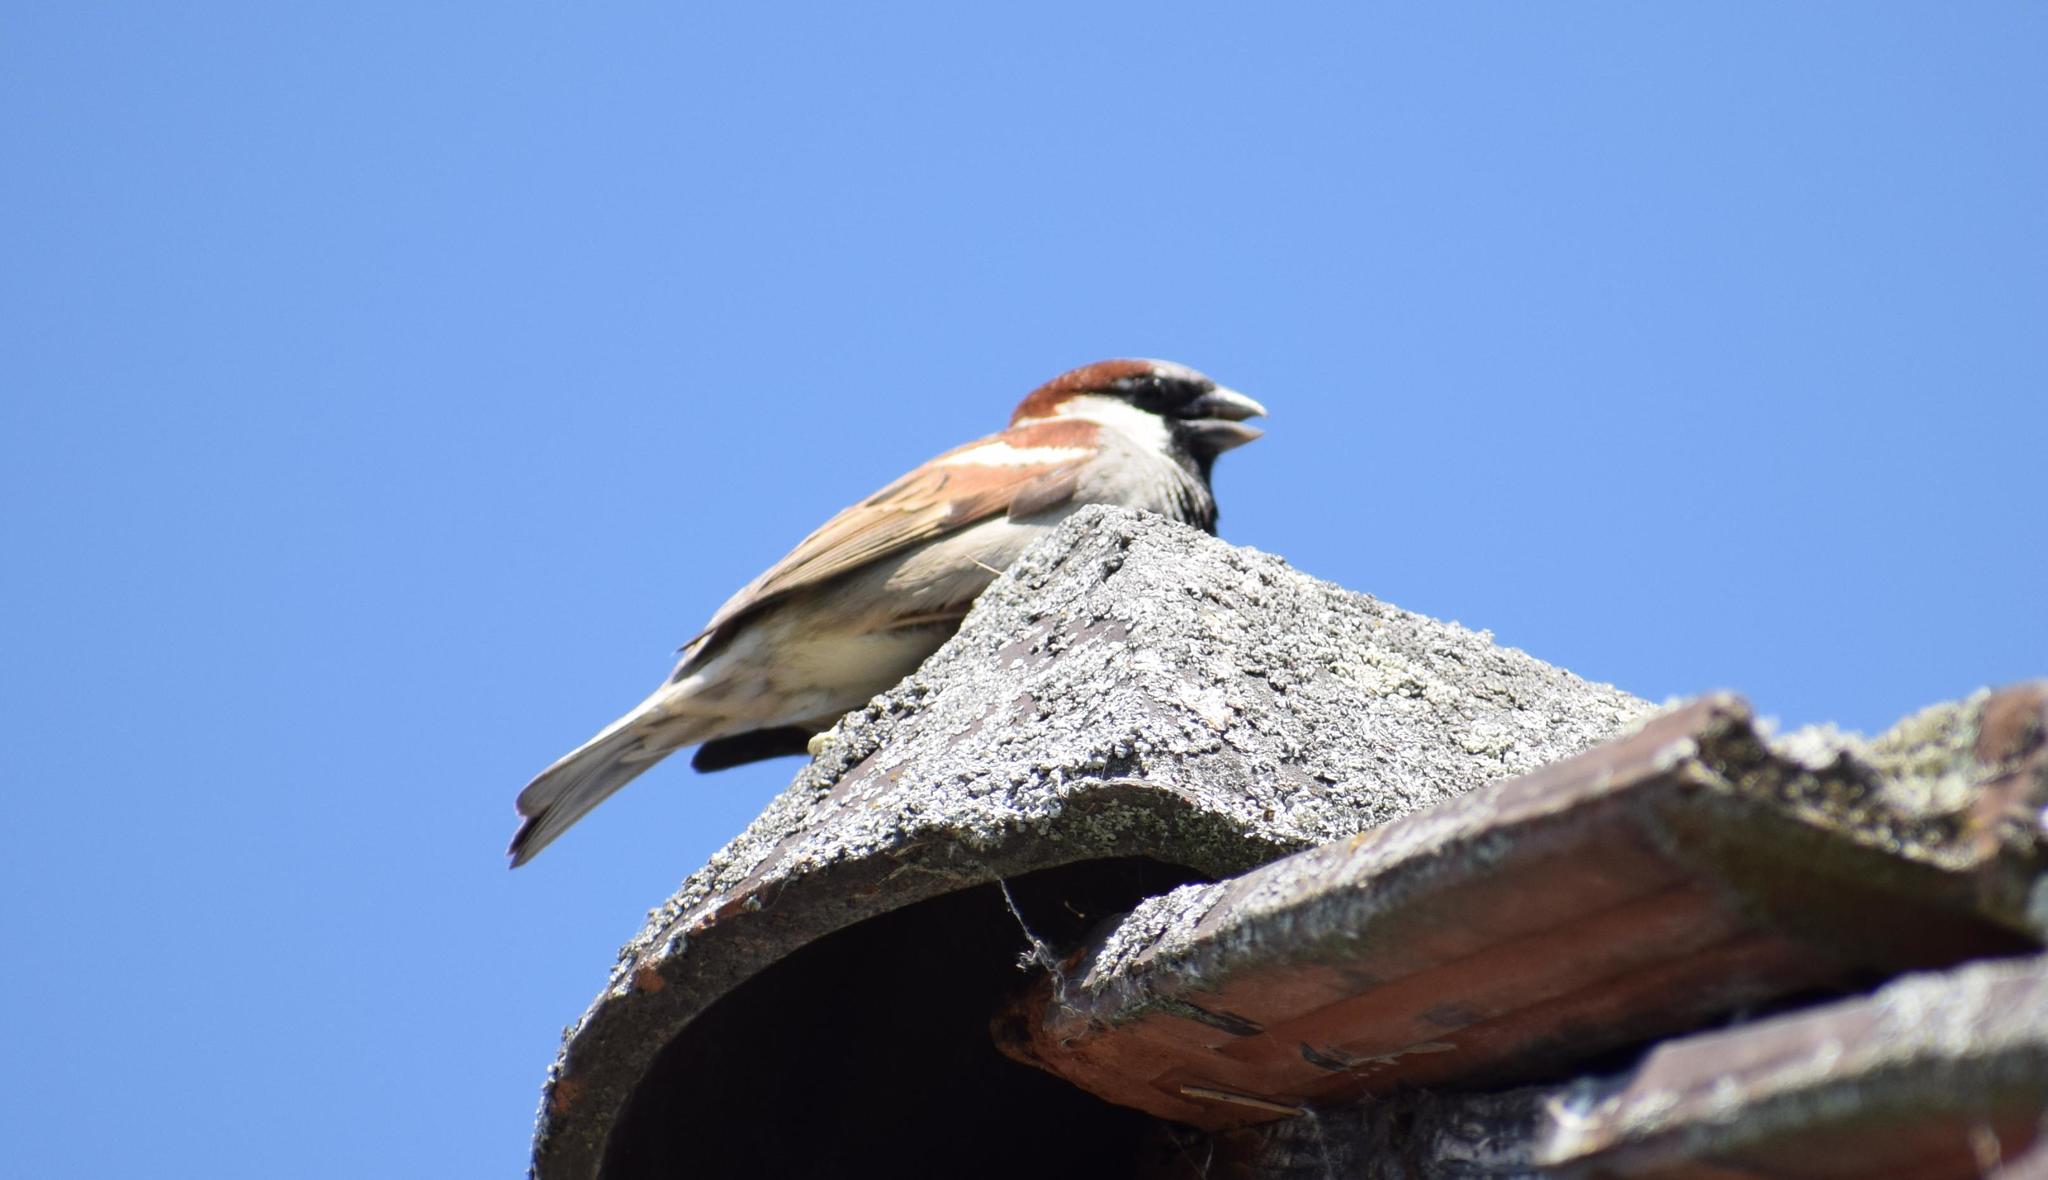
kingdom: Animalia
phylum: Chordata
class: Aves
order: Passeriformes
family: Passeridae
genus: Passer
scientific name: Passer domesticus
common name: House sparrow
